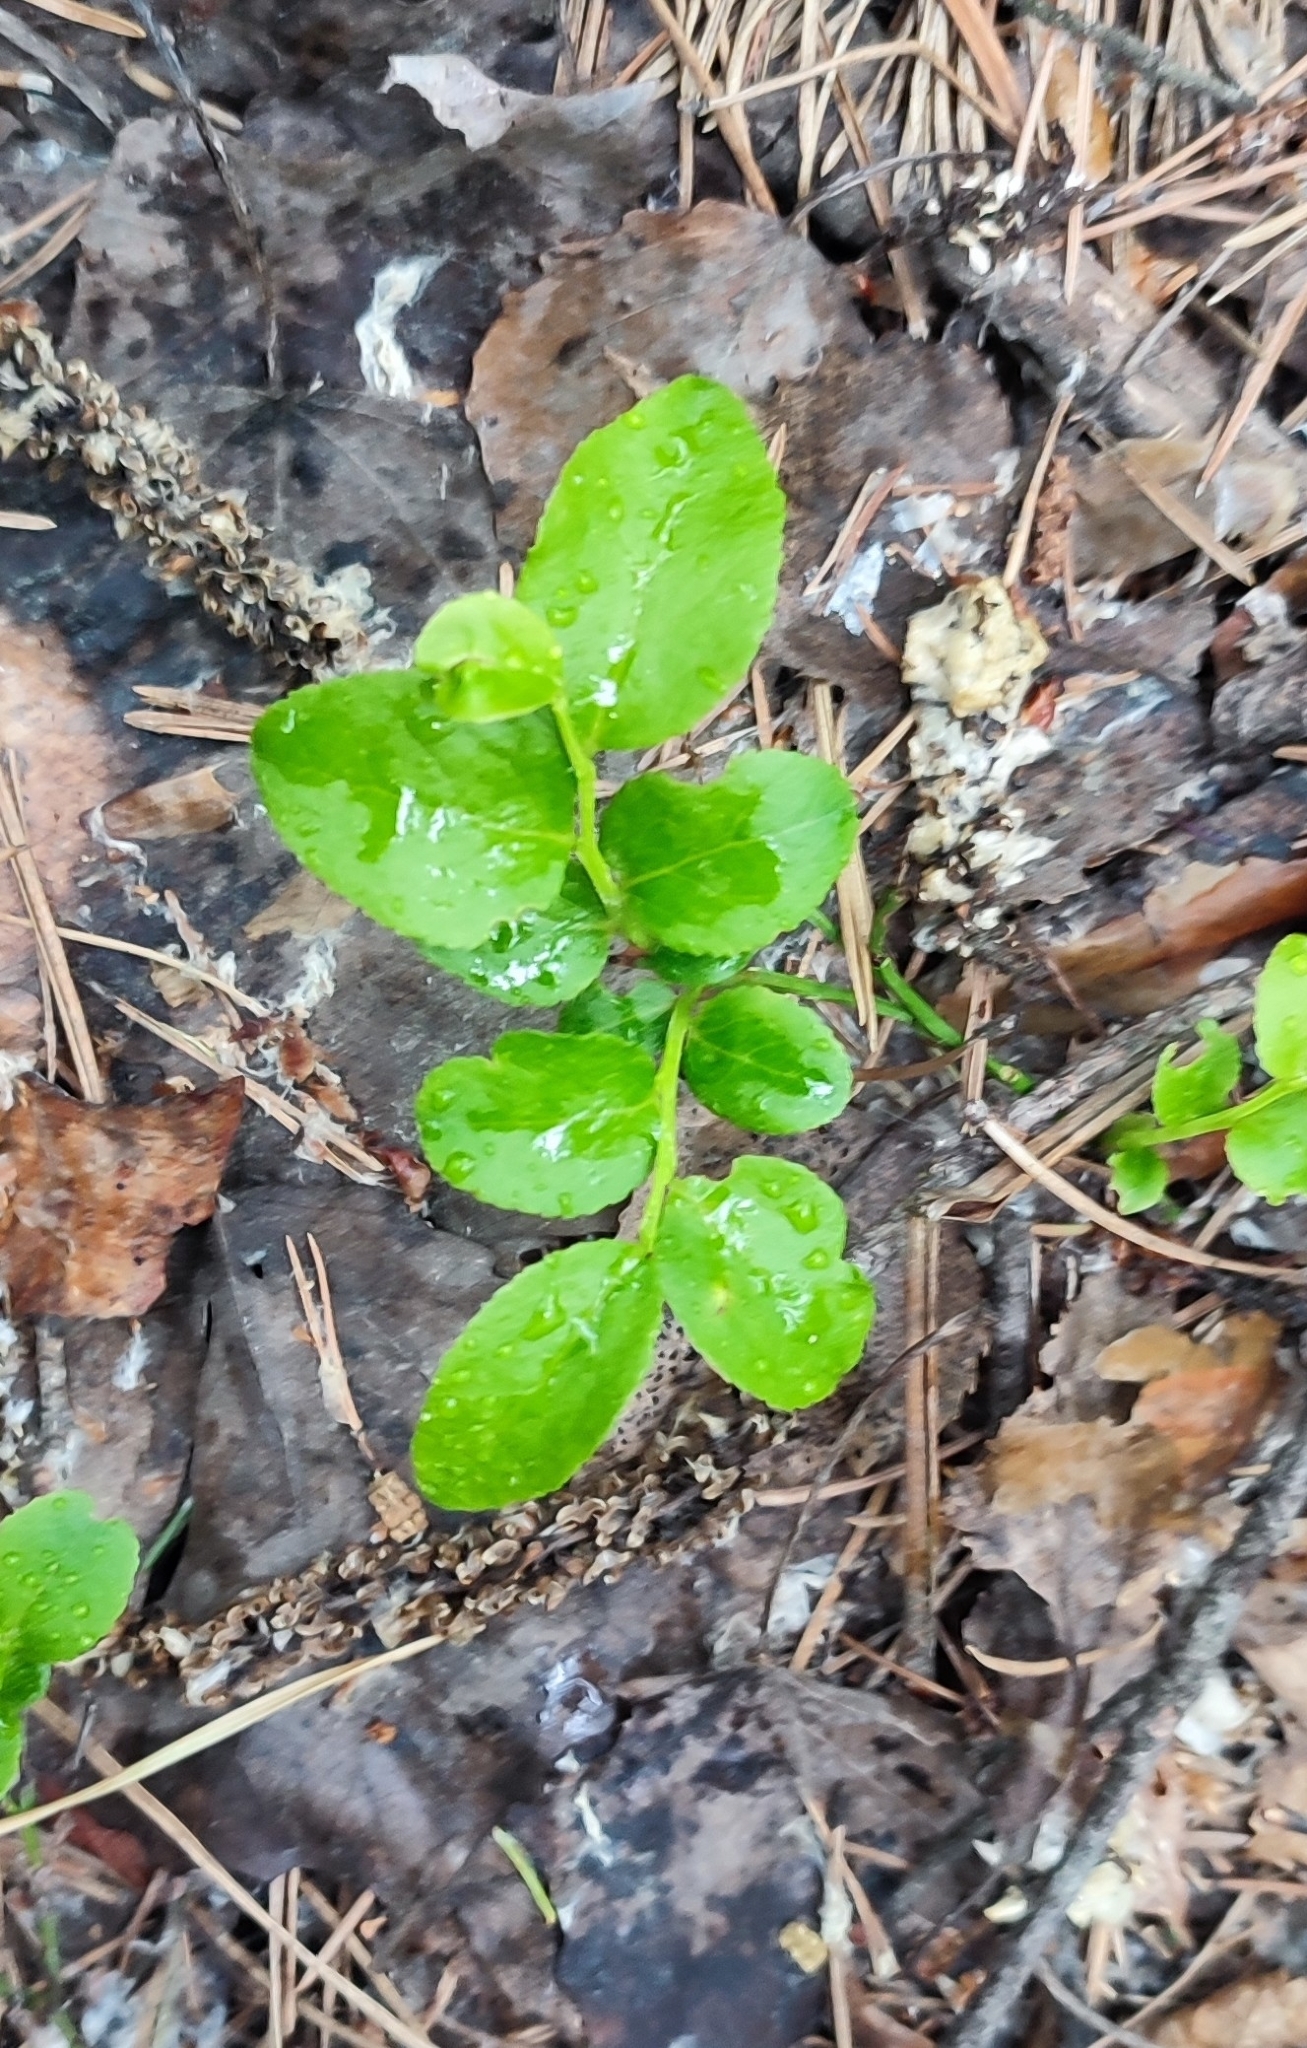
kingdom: Plantae
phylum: Tracheophyta
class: Magnoliopsida
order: Ericales
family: Ericaceae
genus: Vaccinium
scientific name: Vaccinium myrtillus
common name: Bilberry
